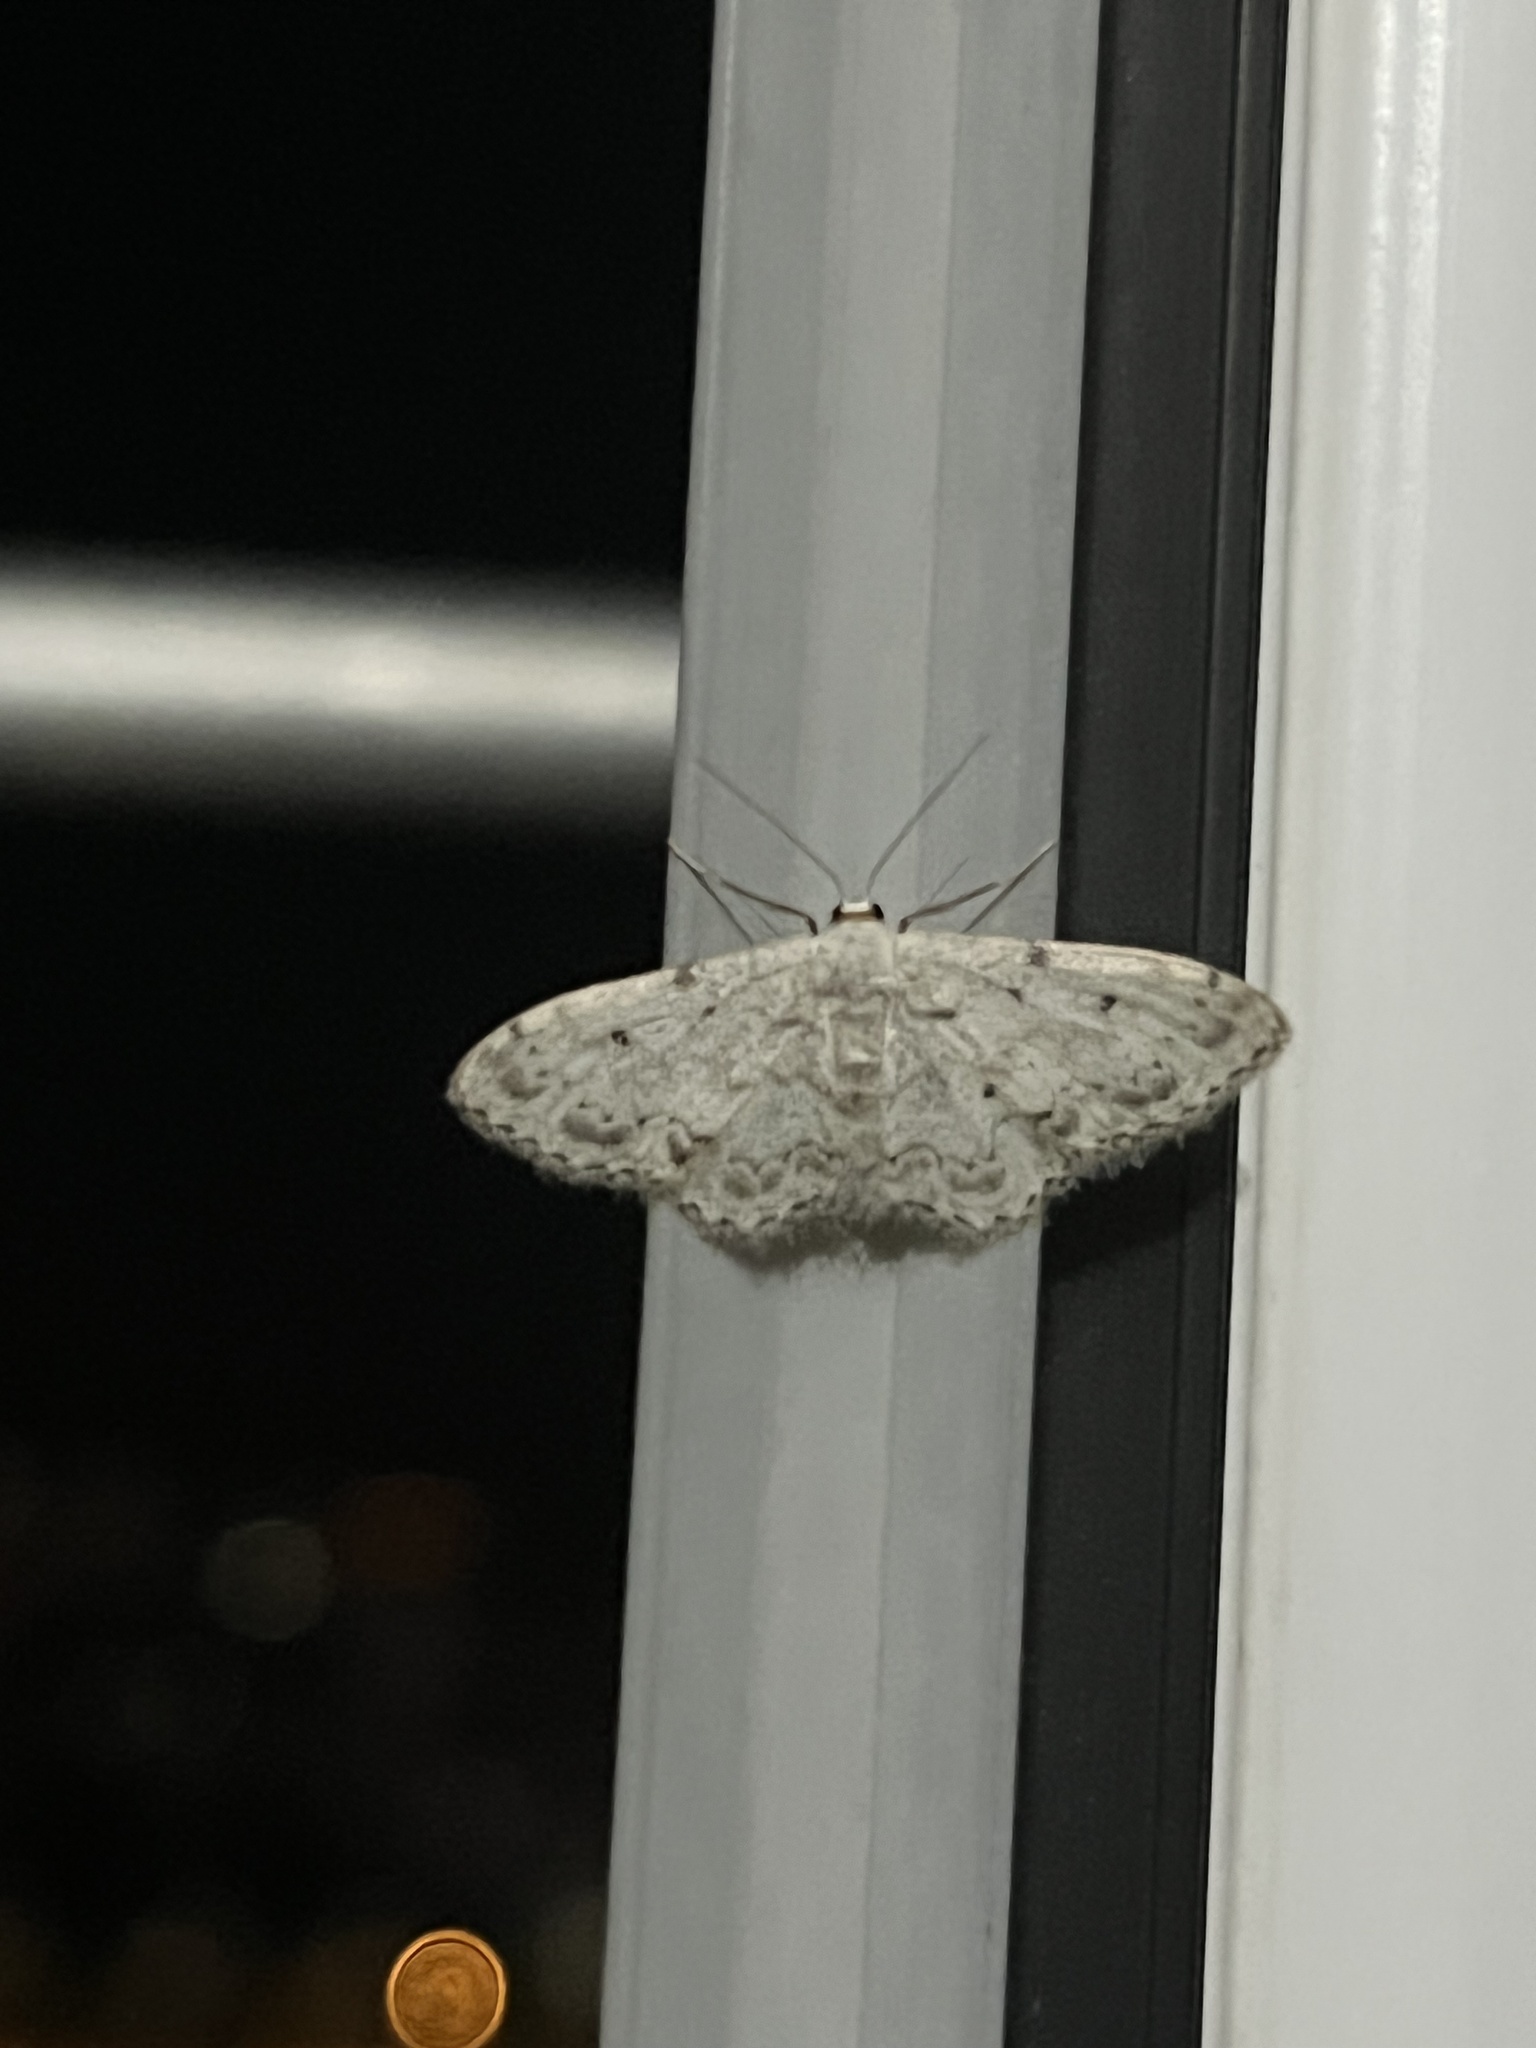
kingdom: Animalia
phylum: Arthropoda
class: Insecta
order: Lepidoptera
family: Geometridae
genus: Idaea
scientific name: Idaea camparia
